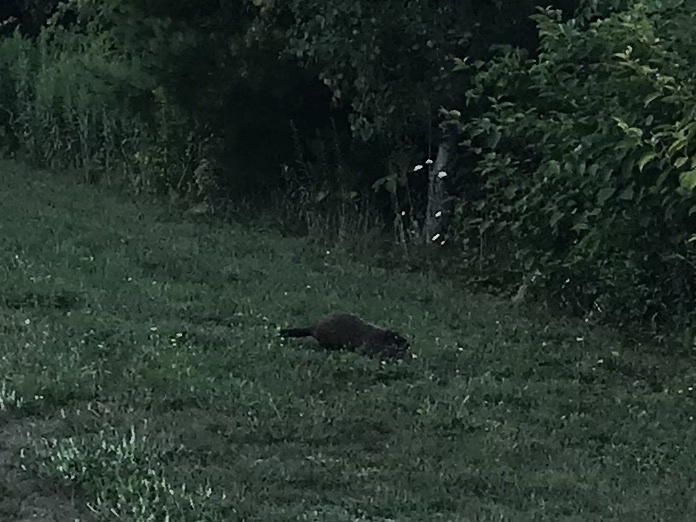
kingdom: Animalia
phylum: Chordata
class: Mammalia
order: Rodentia
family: Sciuridae
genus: Marmota
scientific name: Marmota monax
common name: Groundhog
